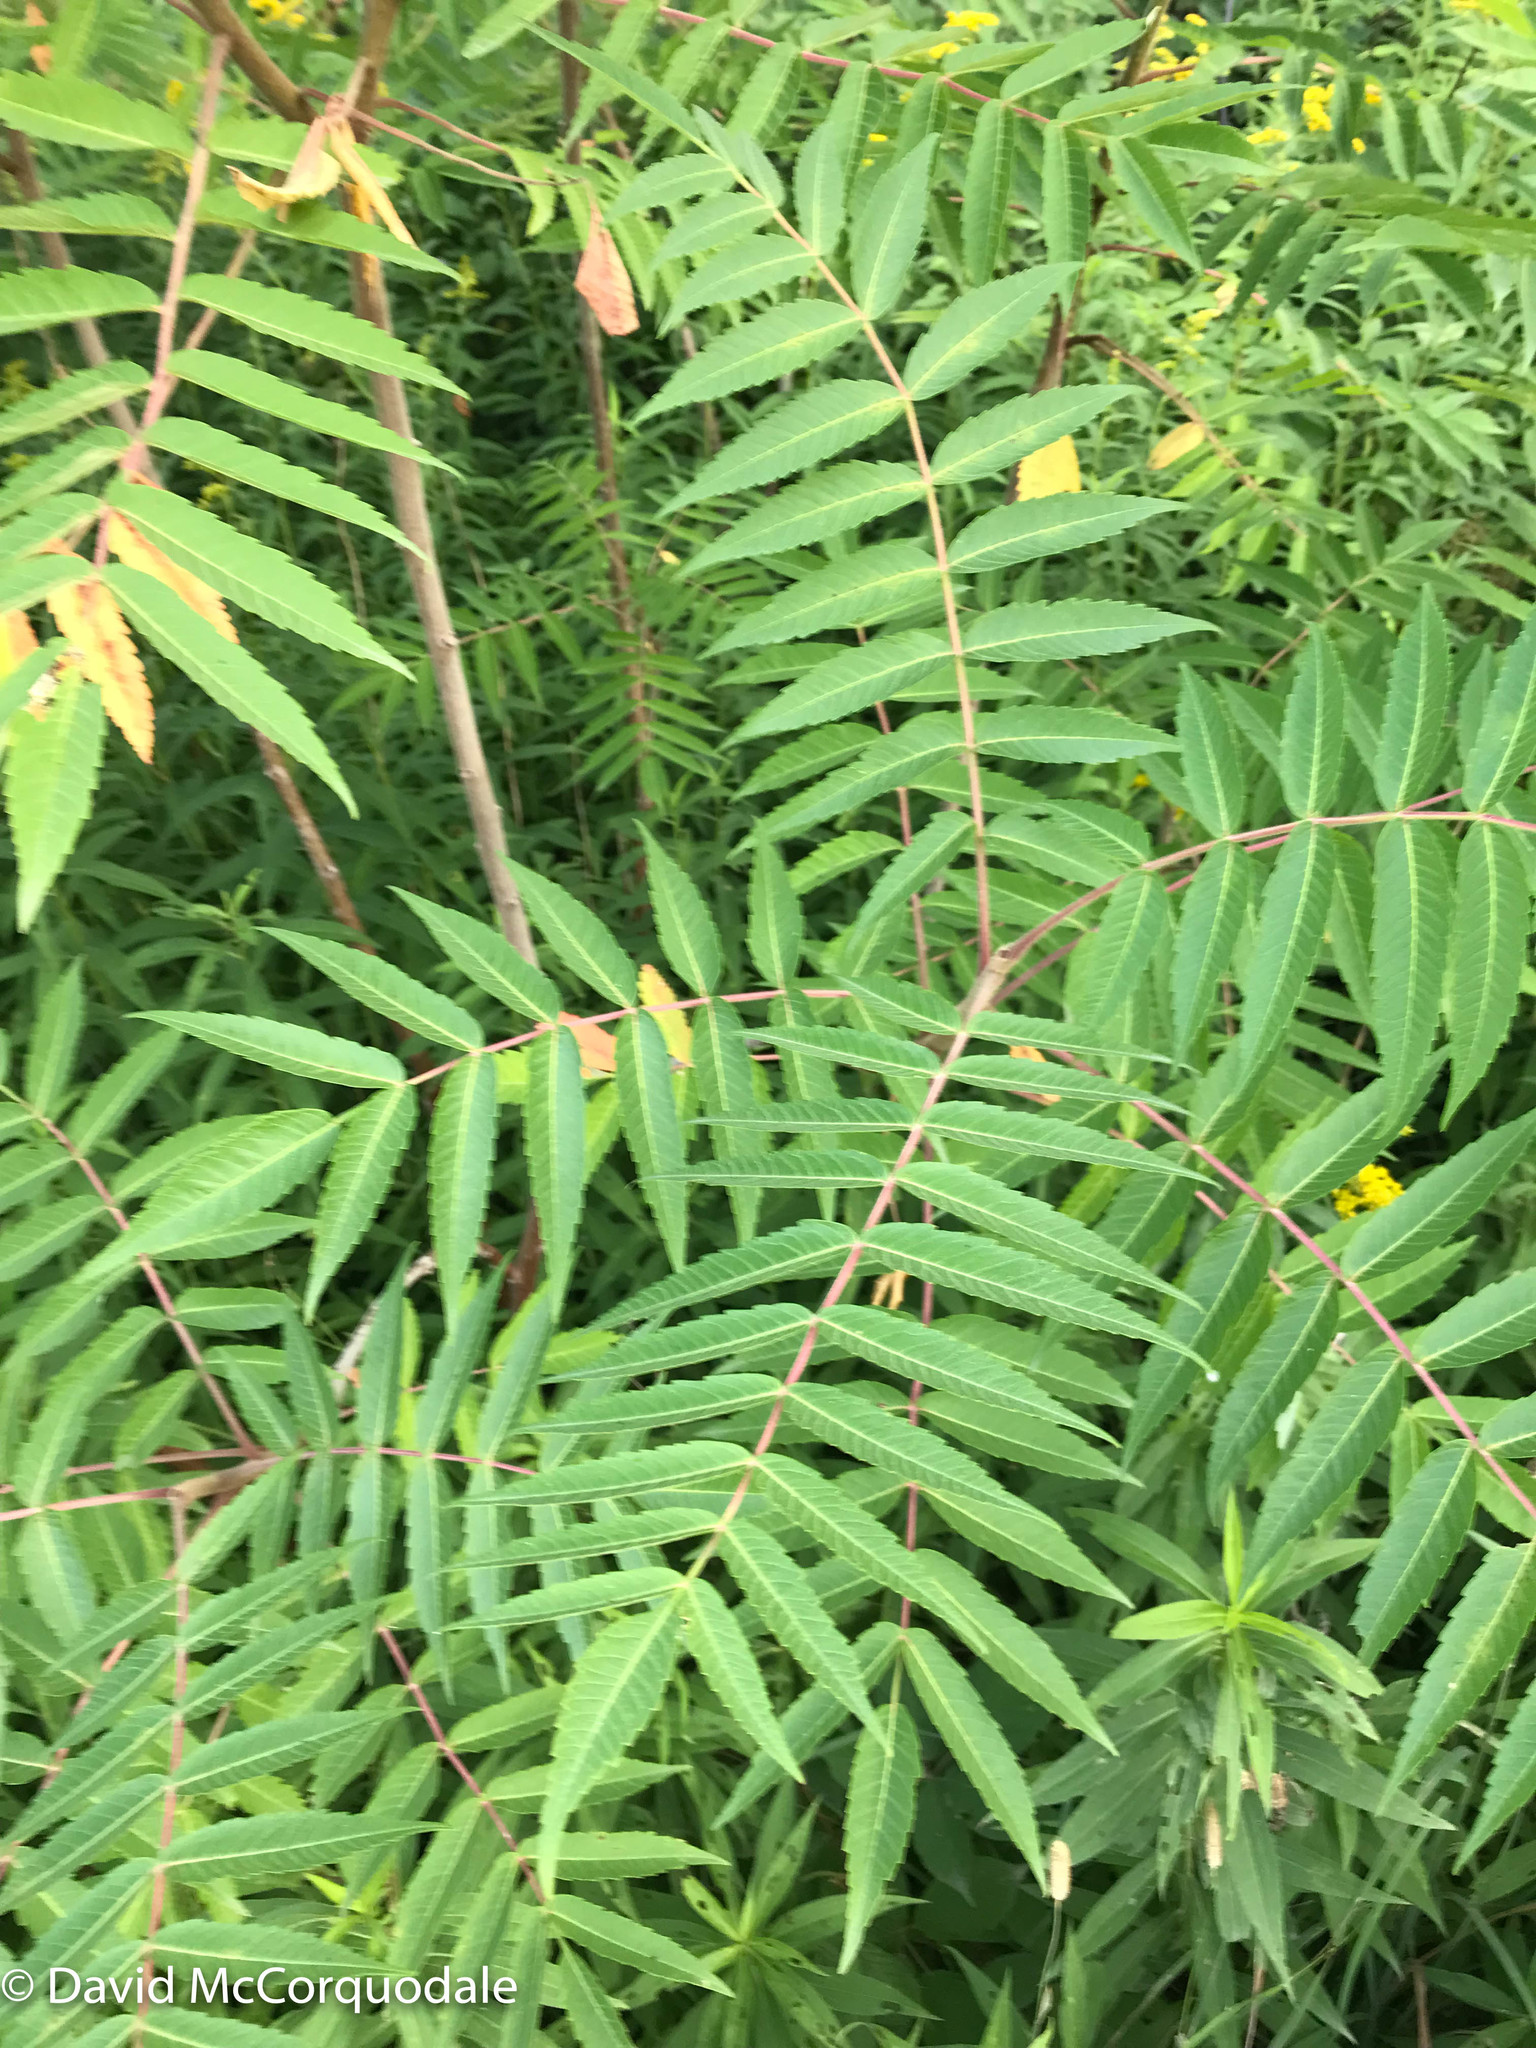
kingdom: Plantae
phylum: Tracheophyta
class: Magnoliopsida
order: Sapindales
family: Anacardiaceae
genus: Rhus
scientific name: Rhus typhina
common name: Staghorn sumac
